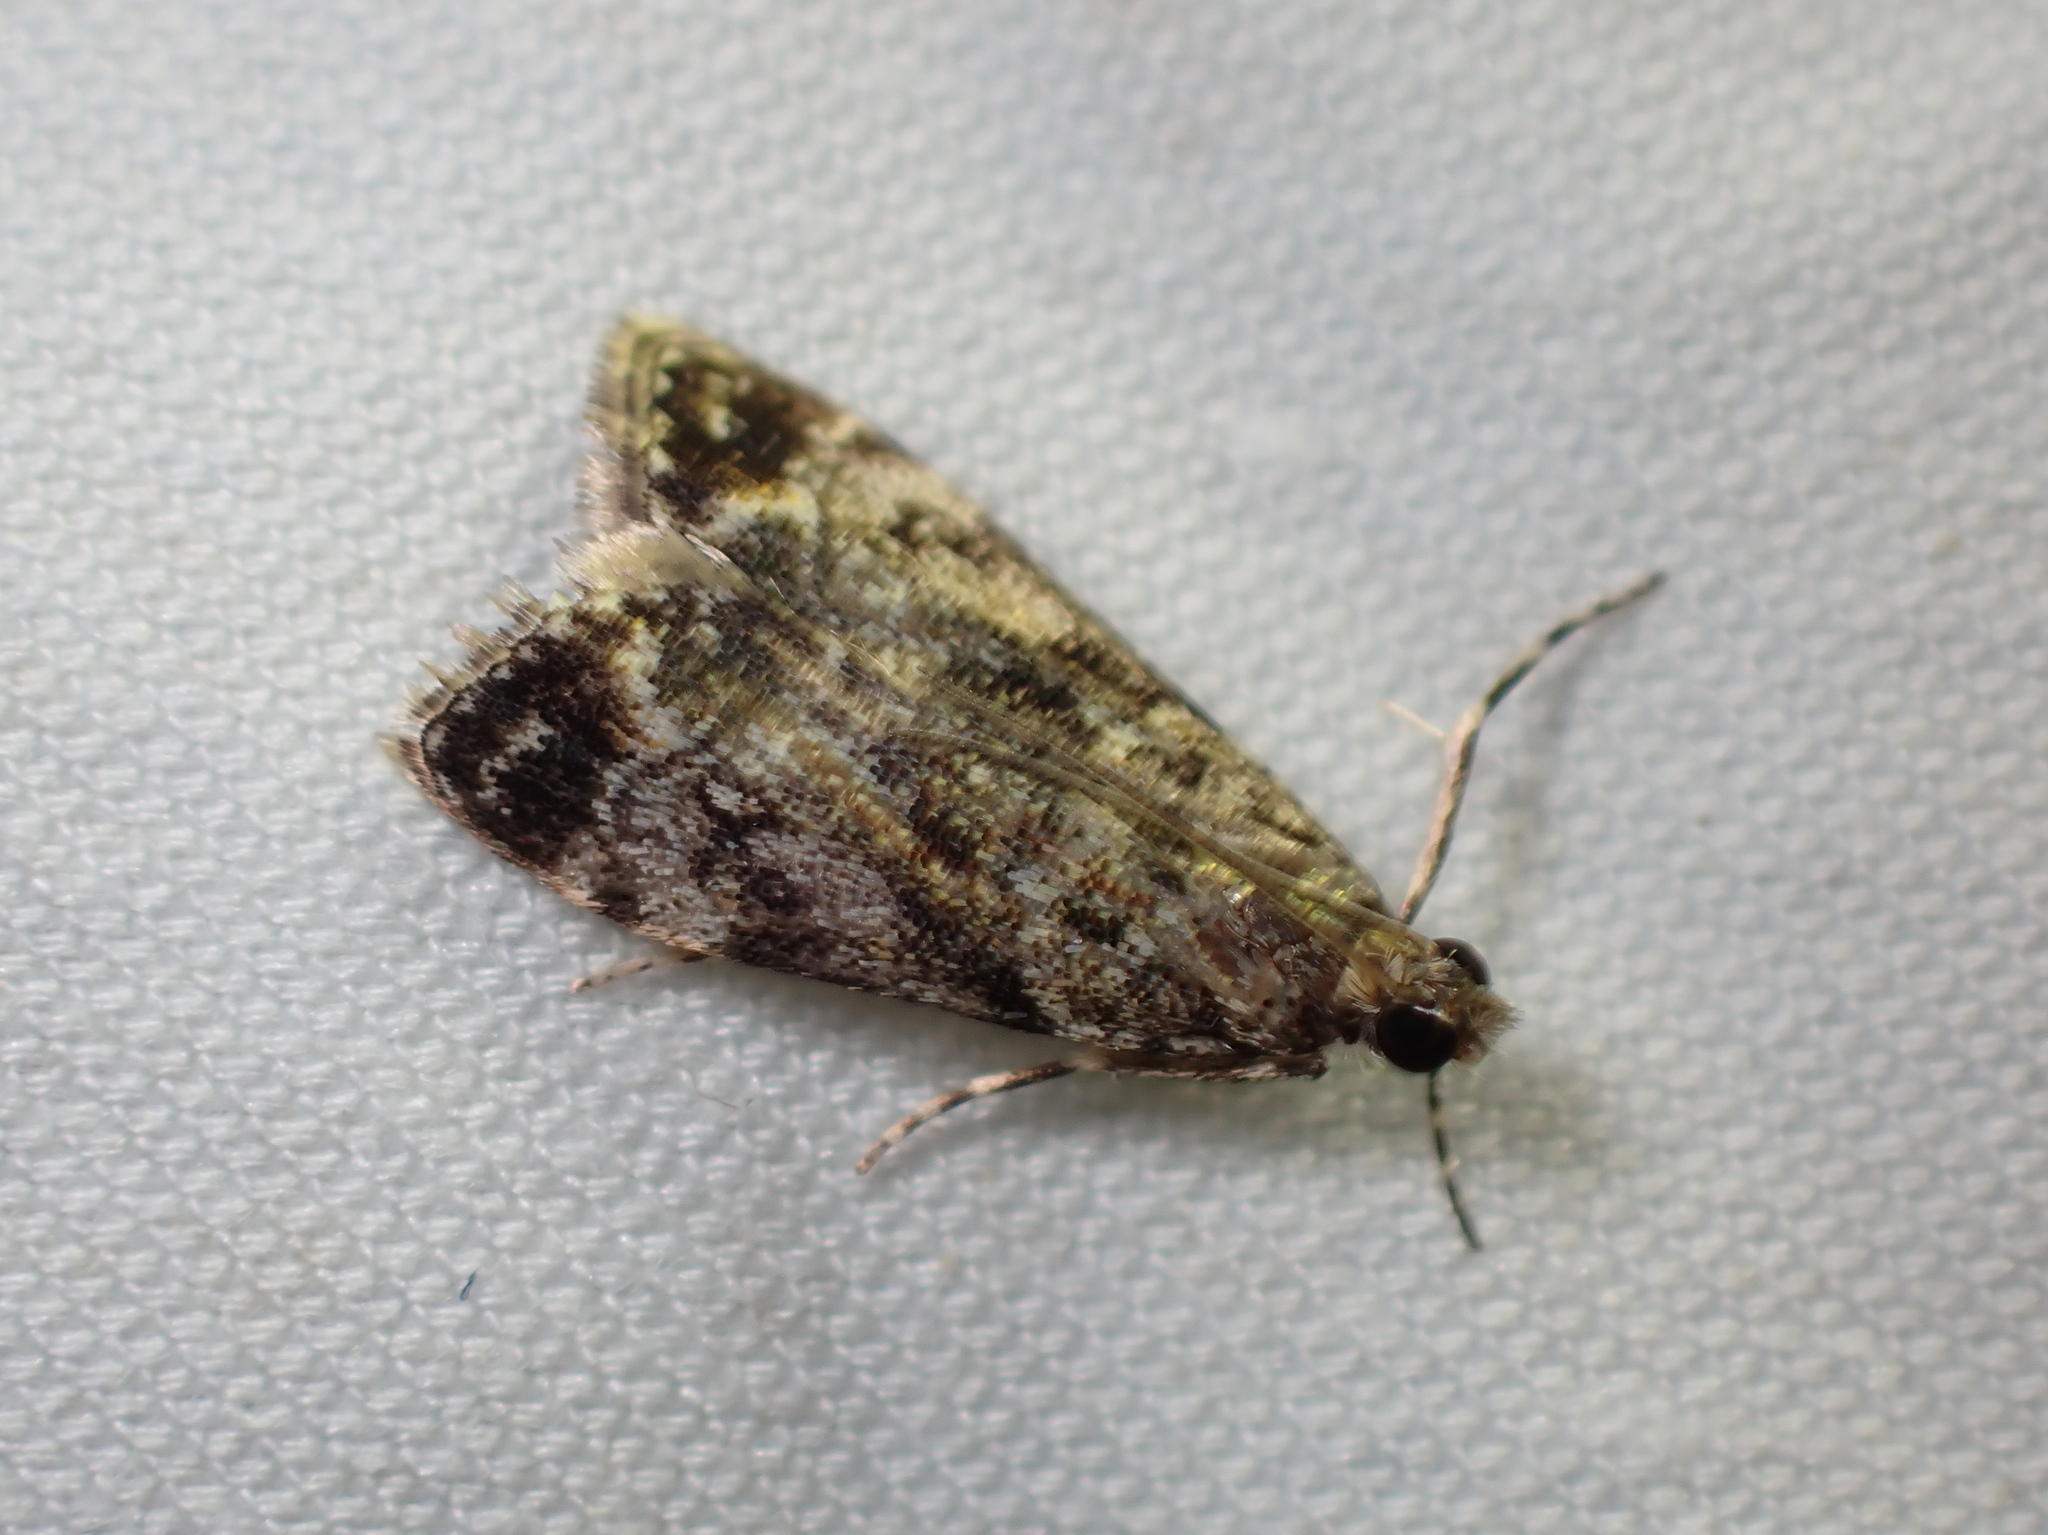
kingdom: Animalia
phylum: Arthropoda
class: Insecta
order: Lepidoptera
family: Crambidae
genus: Eudonia
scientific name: Eudonia minualis
